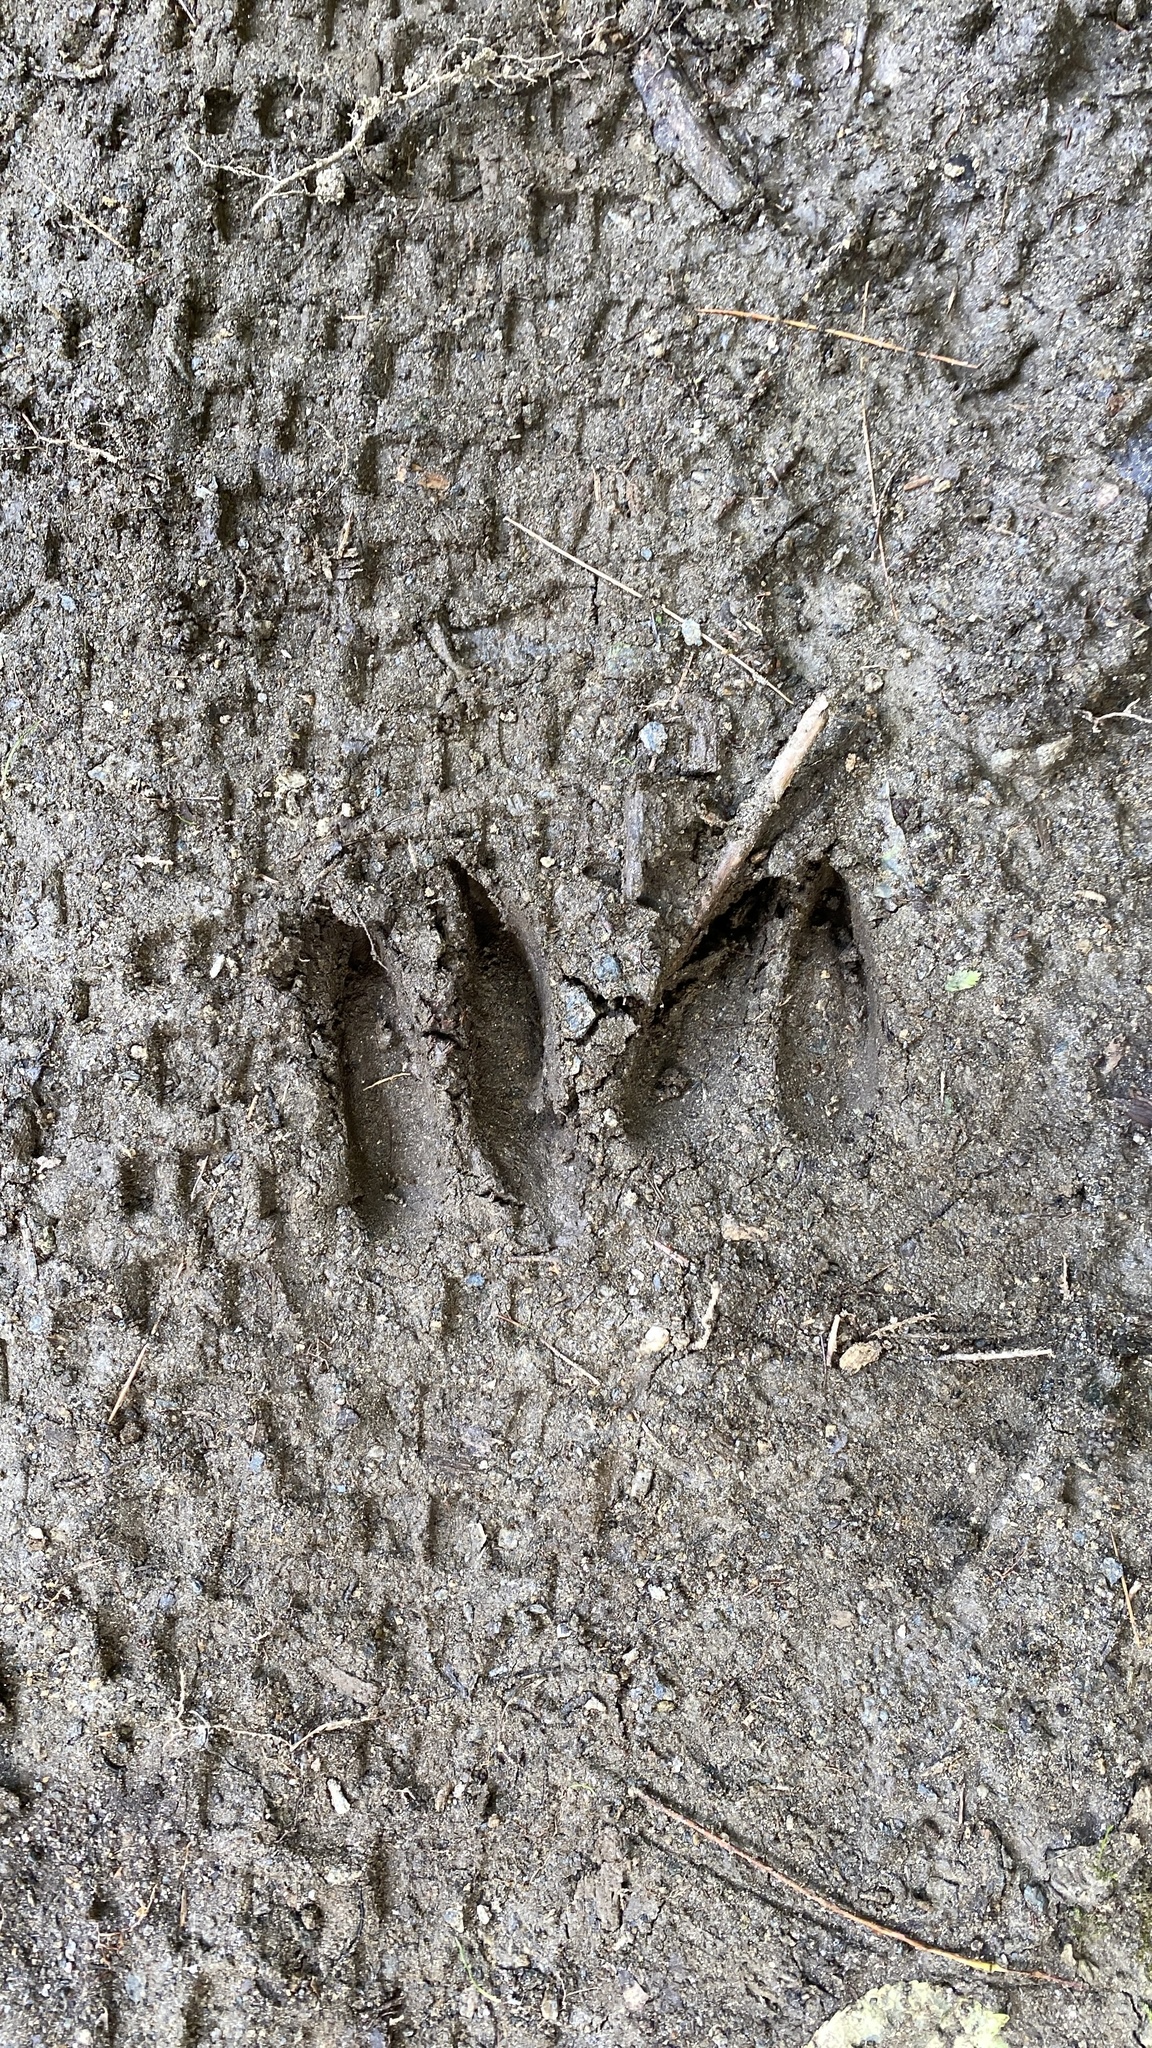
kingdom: Animalia
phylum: Chordata
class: Mammalia
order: Artiodactyla
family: Cervidae
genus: Odocoileus
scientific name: Odocoileus virginianus
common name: White-tailed deer
